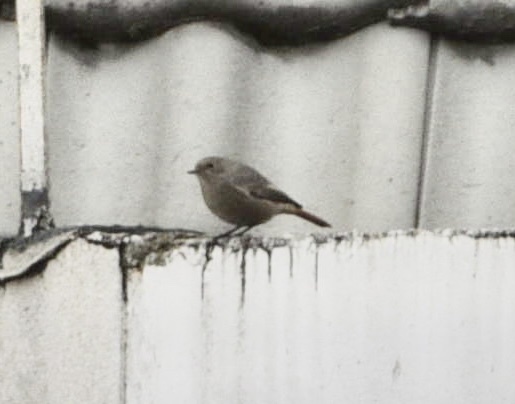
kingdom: Animalia
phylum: Chordata
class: Aves
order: Passeriformes
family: Muscicapidae
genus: Phoenicurus
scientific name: Phoenicurus ochruros
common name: Black redstart
